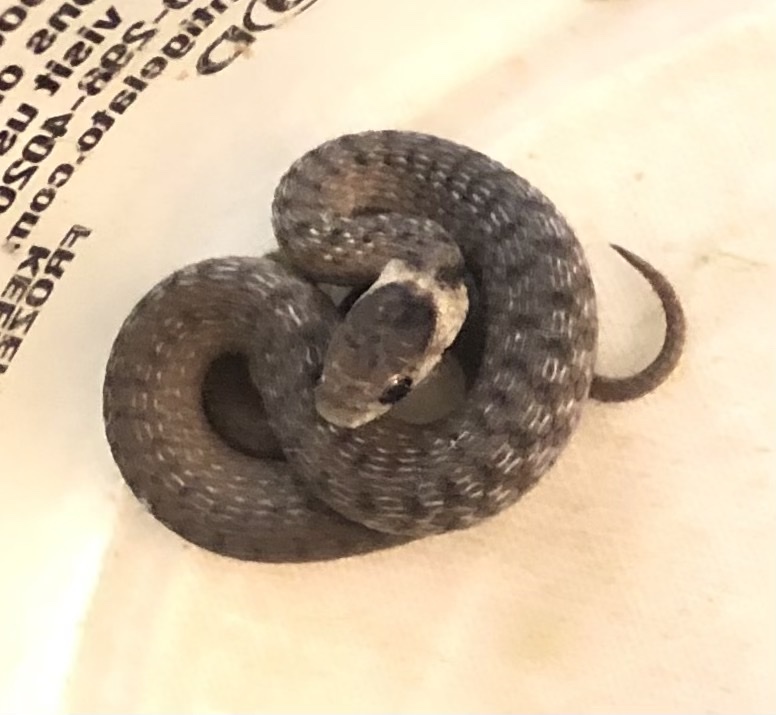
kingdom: Animalia
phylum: Chordata
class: Squamata
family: Colubridae
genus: Storeria
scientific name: Storeria dekayi
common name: (dekay’s) brown snake
